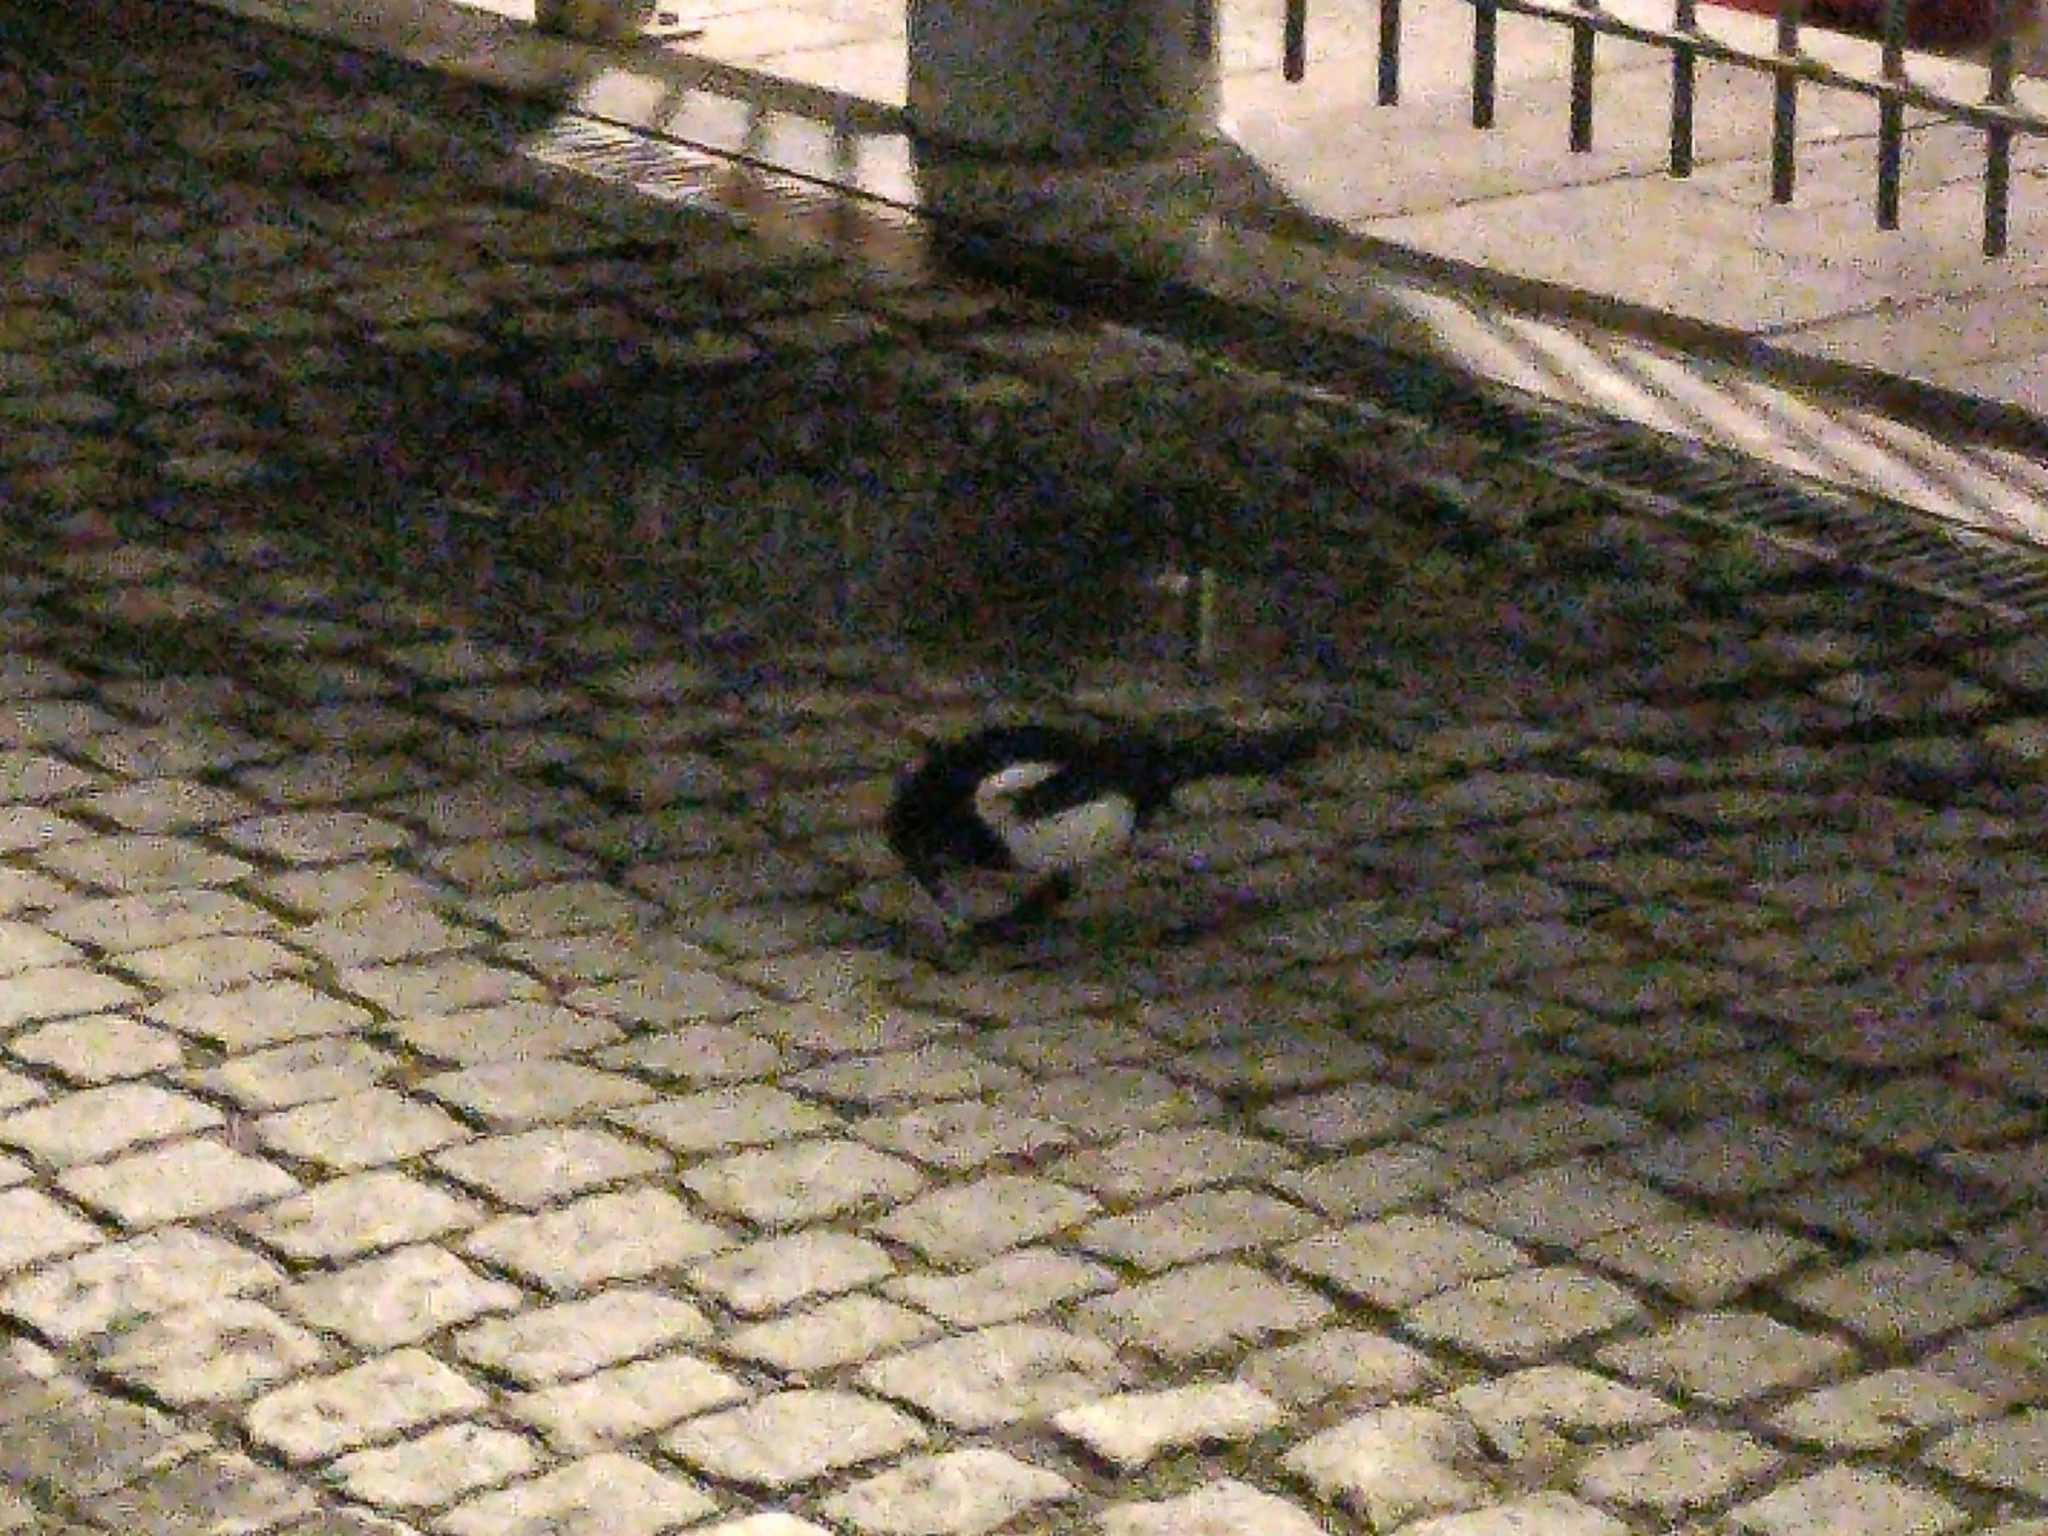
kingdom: Animalia
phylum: Chordata
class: Aves
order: Passeriformes
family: Corvidae
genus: Pica
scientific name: Pica pica
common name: Eurasian magpie
